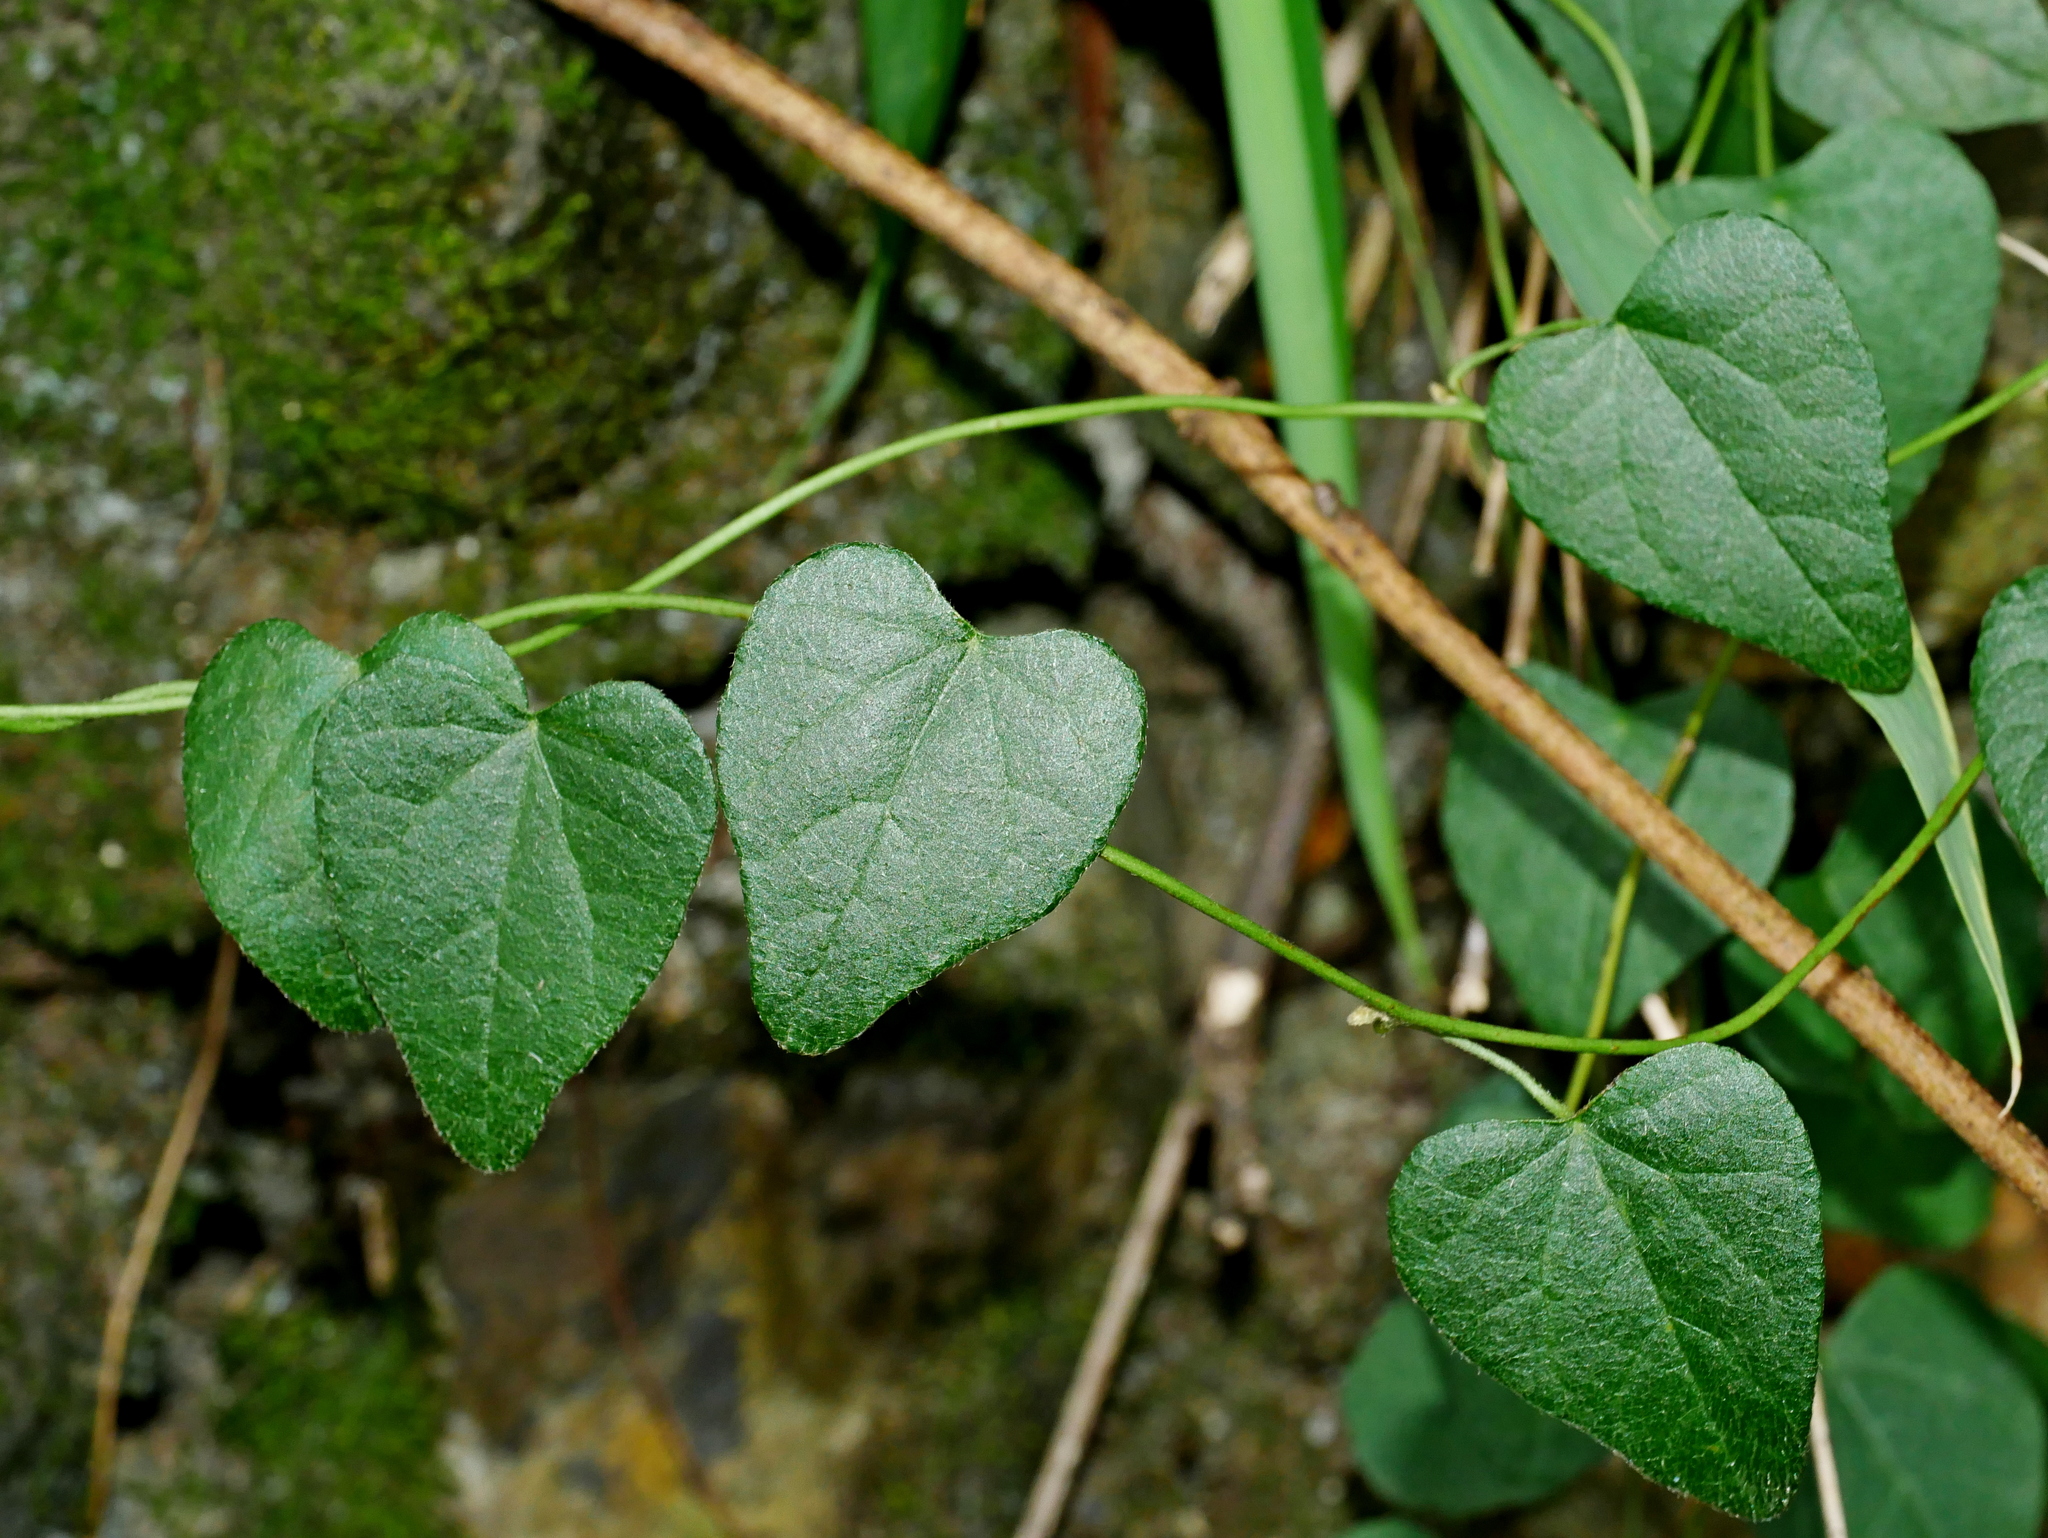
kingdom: Plantae
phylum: Tracheophyta
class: Magnoliopsida
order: Ranunculales
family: Menispermaceae
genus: Cyclea
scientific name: Cyclea gracillima
